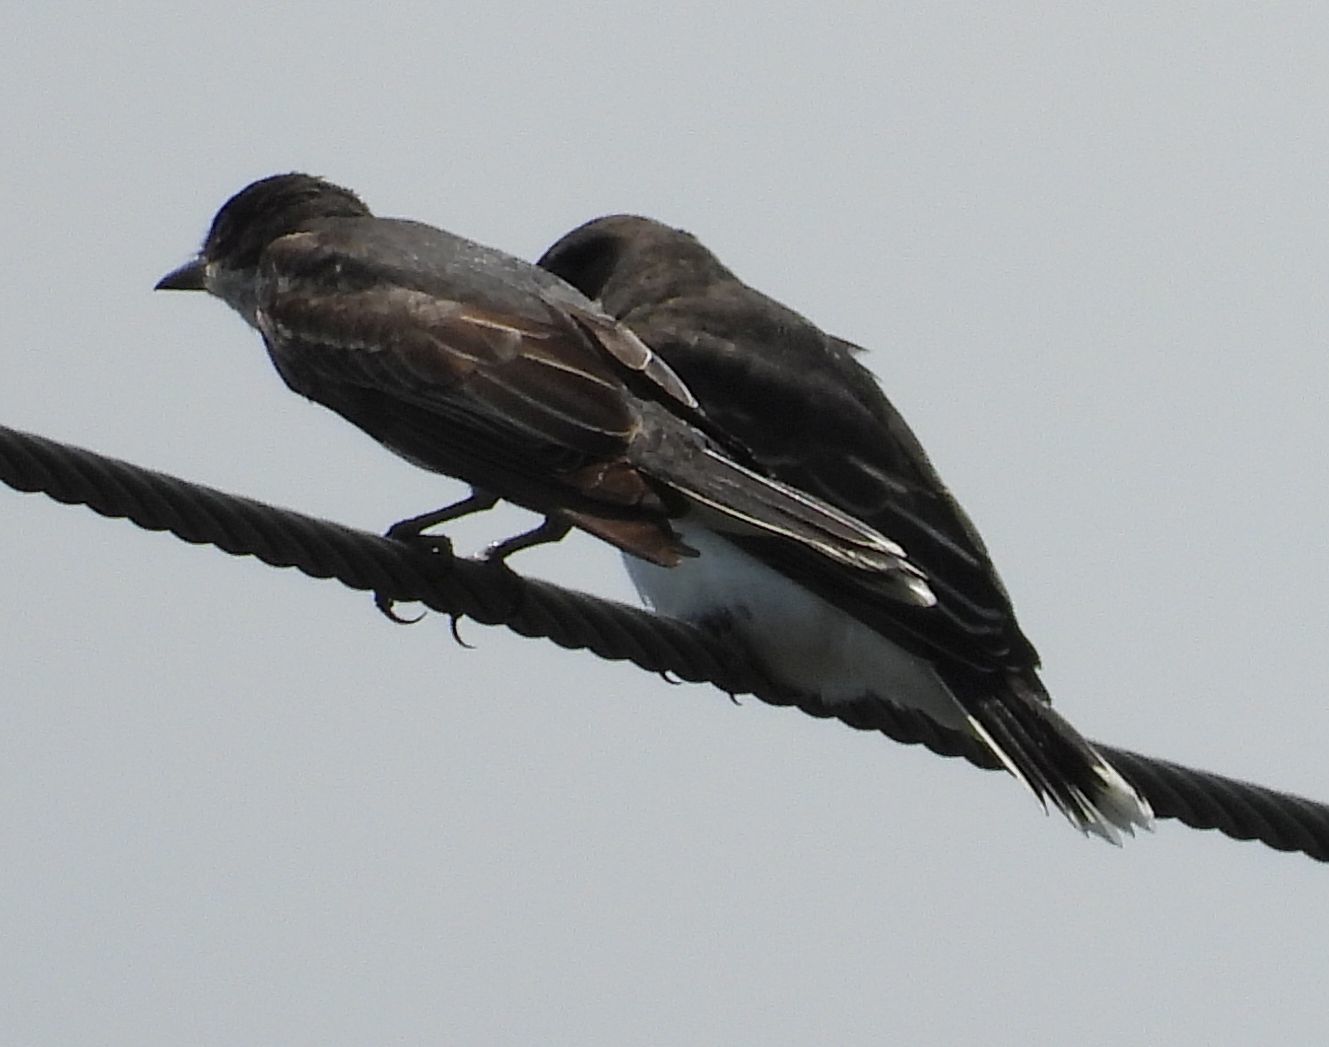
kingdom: Animalia
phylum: Chordata
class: Aves
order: Passeriformes
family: Tyrannidae
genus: Tyrannus
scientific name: Tyrannus tyrannus
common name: Eastern kingbird
